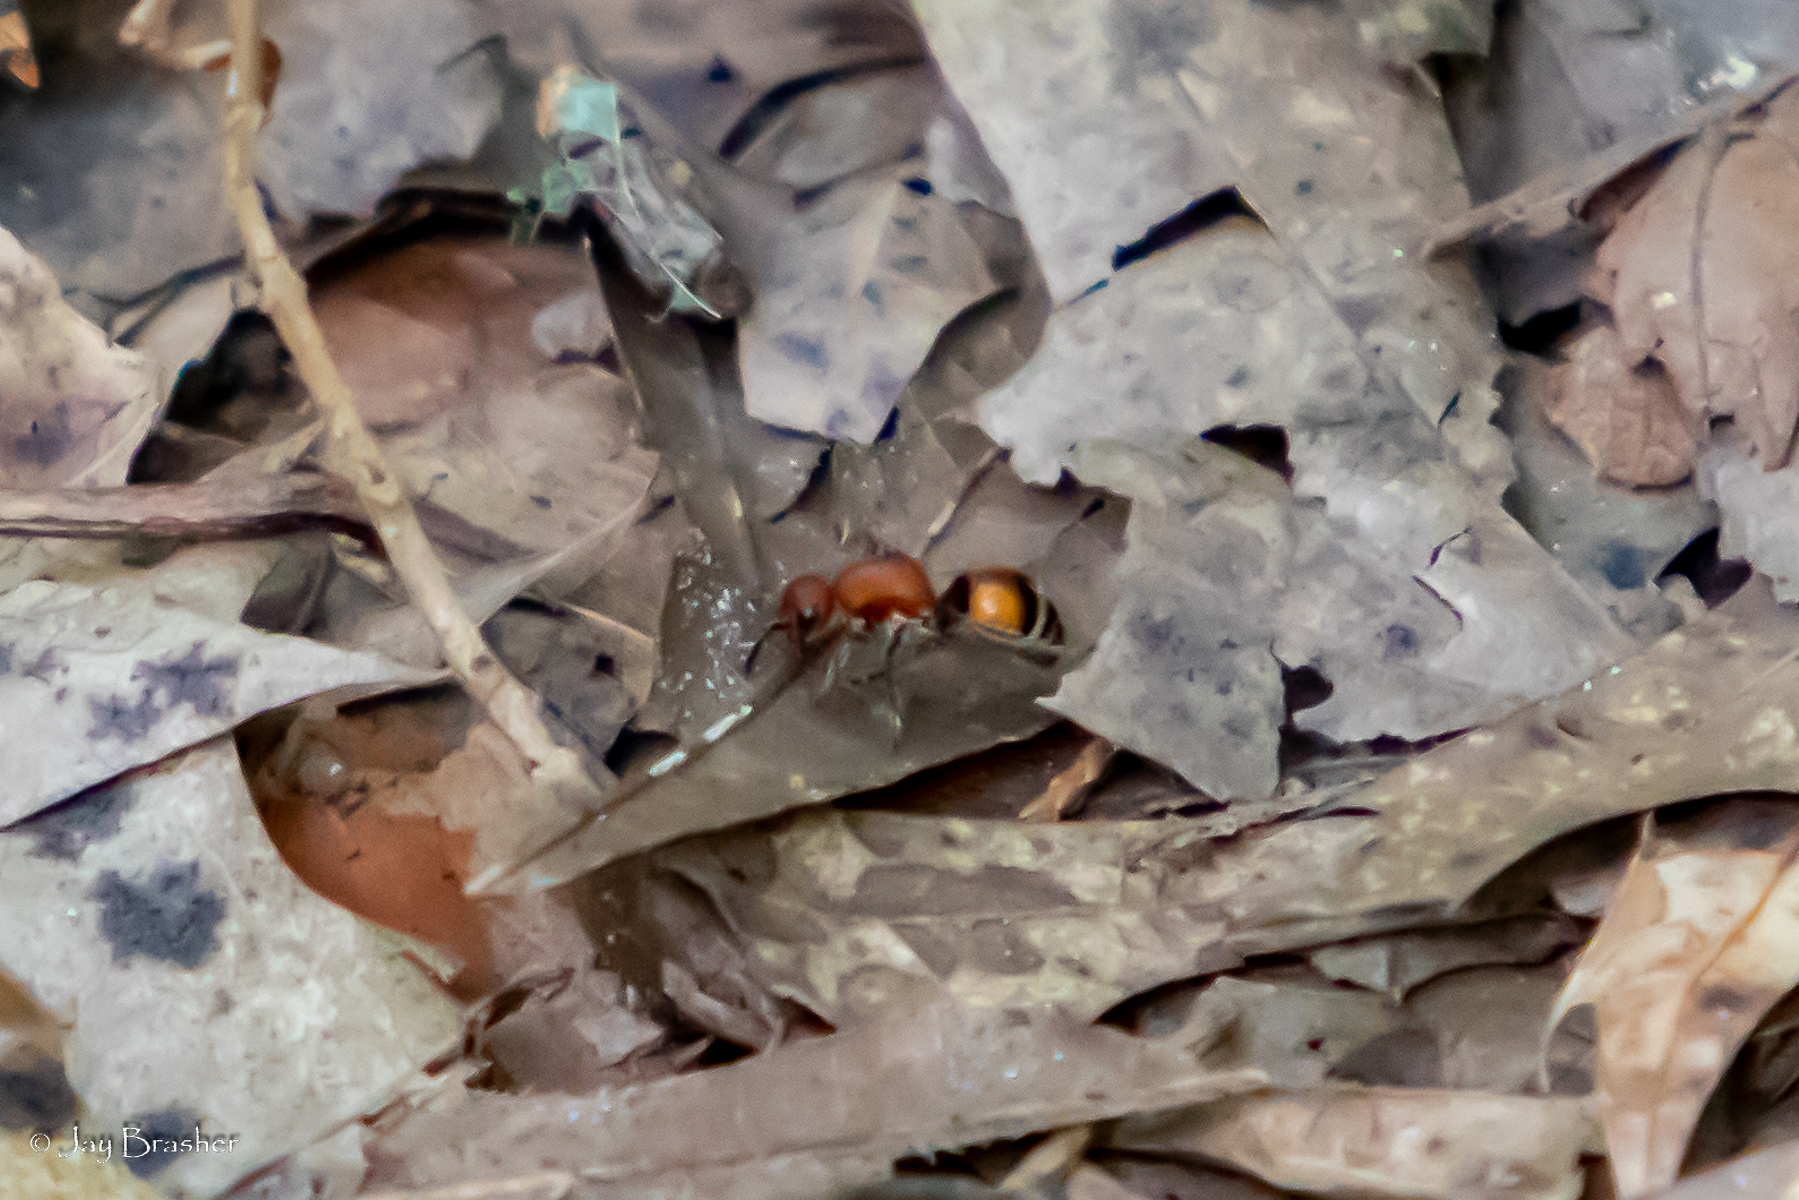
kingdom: Animalia
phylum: Arthropoda
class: Insecta
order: Hymenoptera
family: Mutillidae
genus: Timulla
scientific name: Timulla
